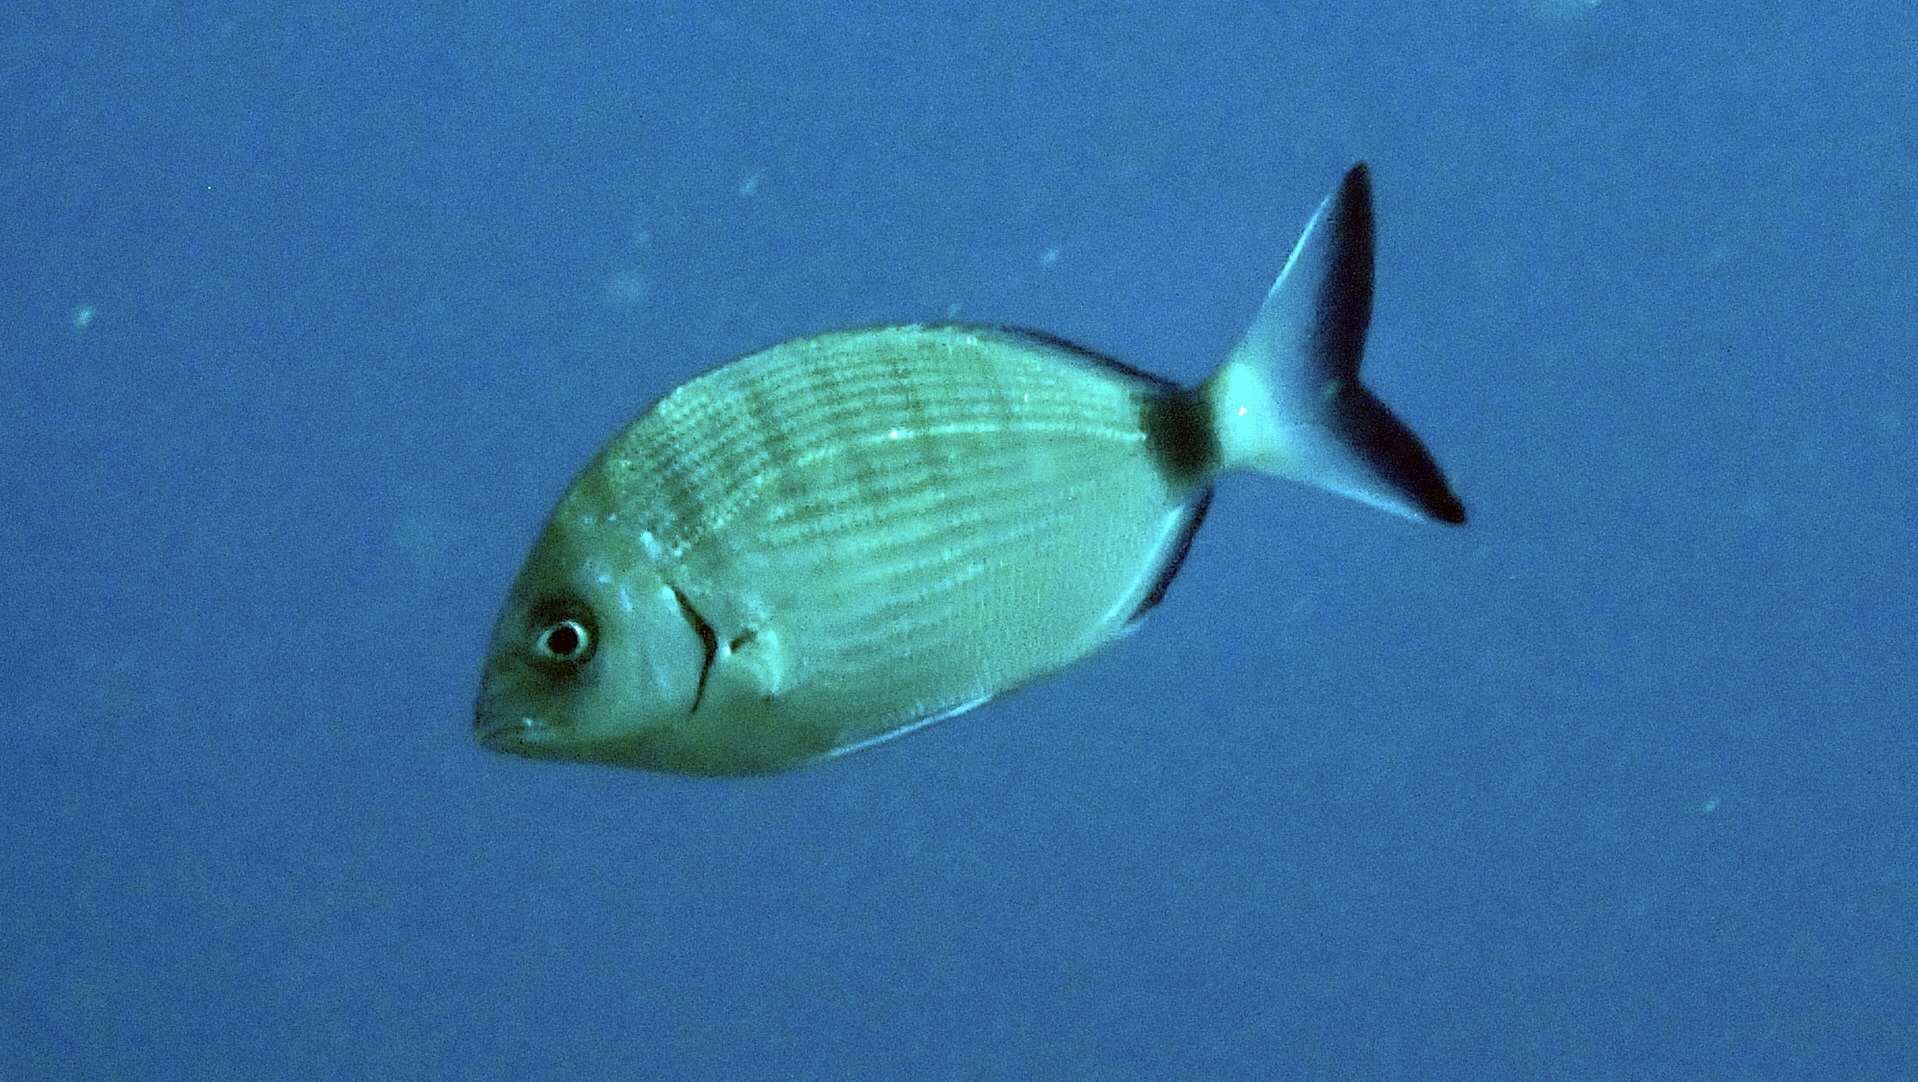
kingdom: Animalia
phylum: Chordata
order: Perciformes
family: Sparidae
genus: Diplodus
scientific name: Diplodus sargus
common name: White seabream
